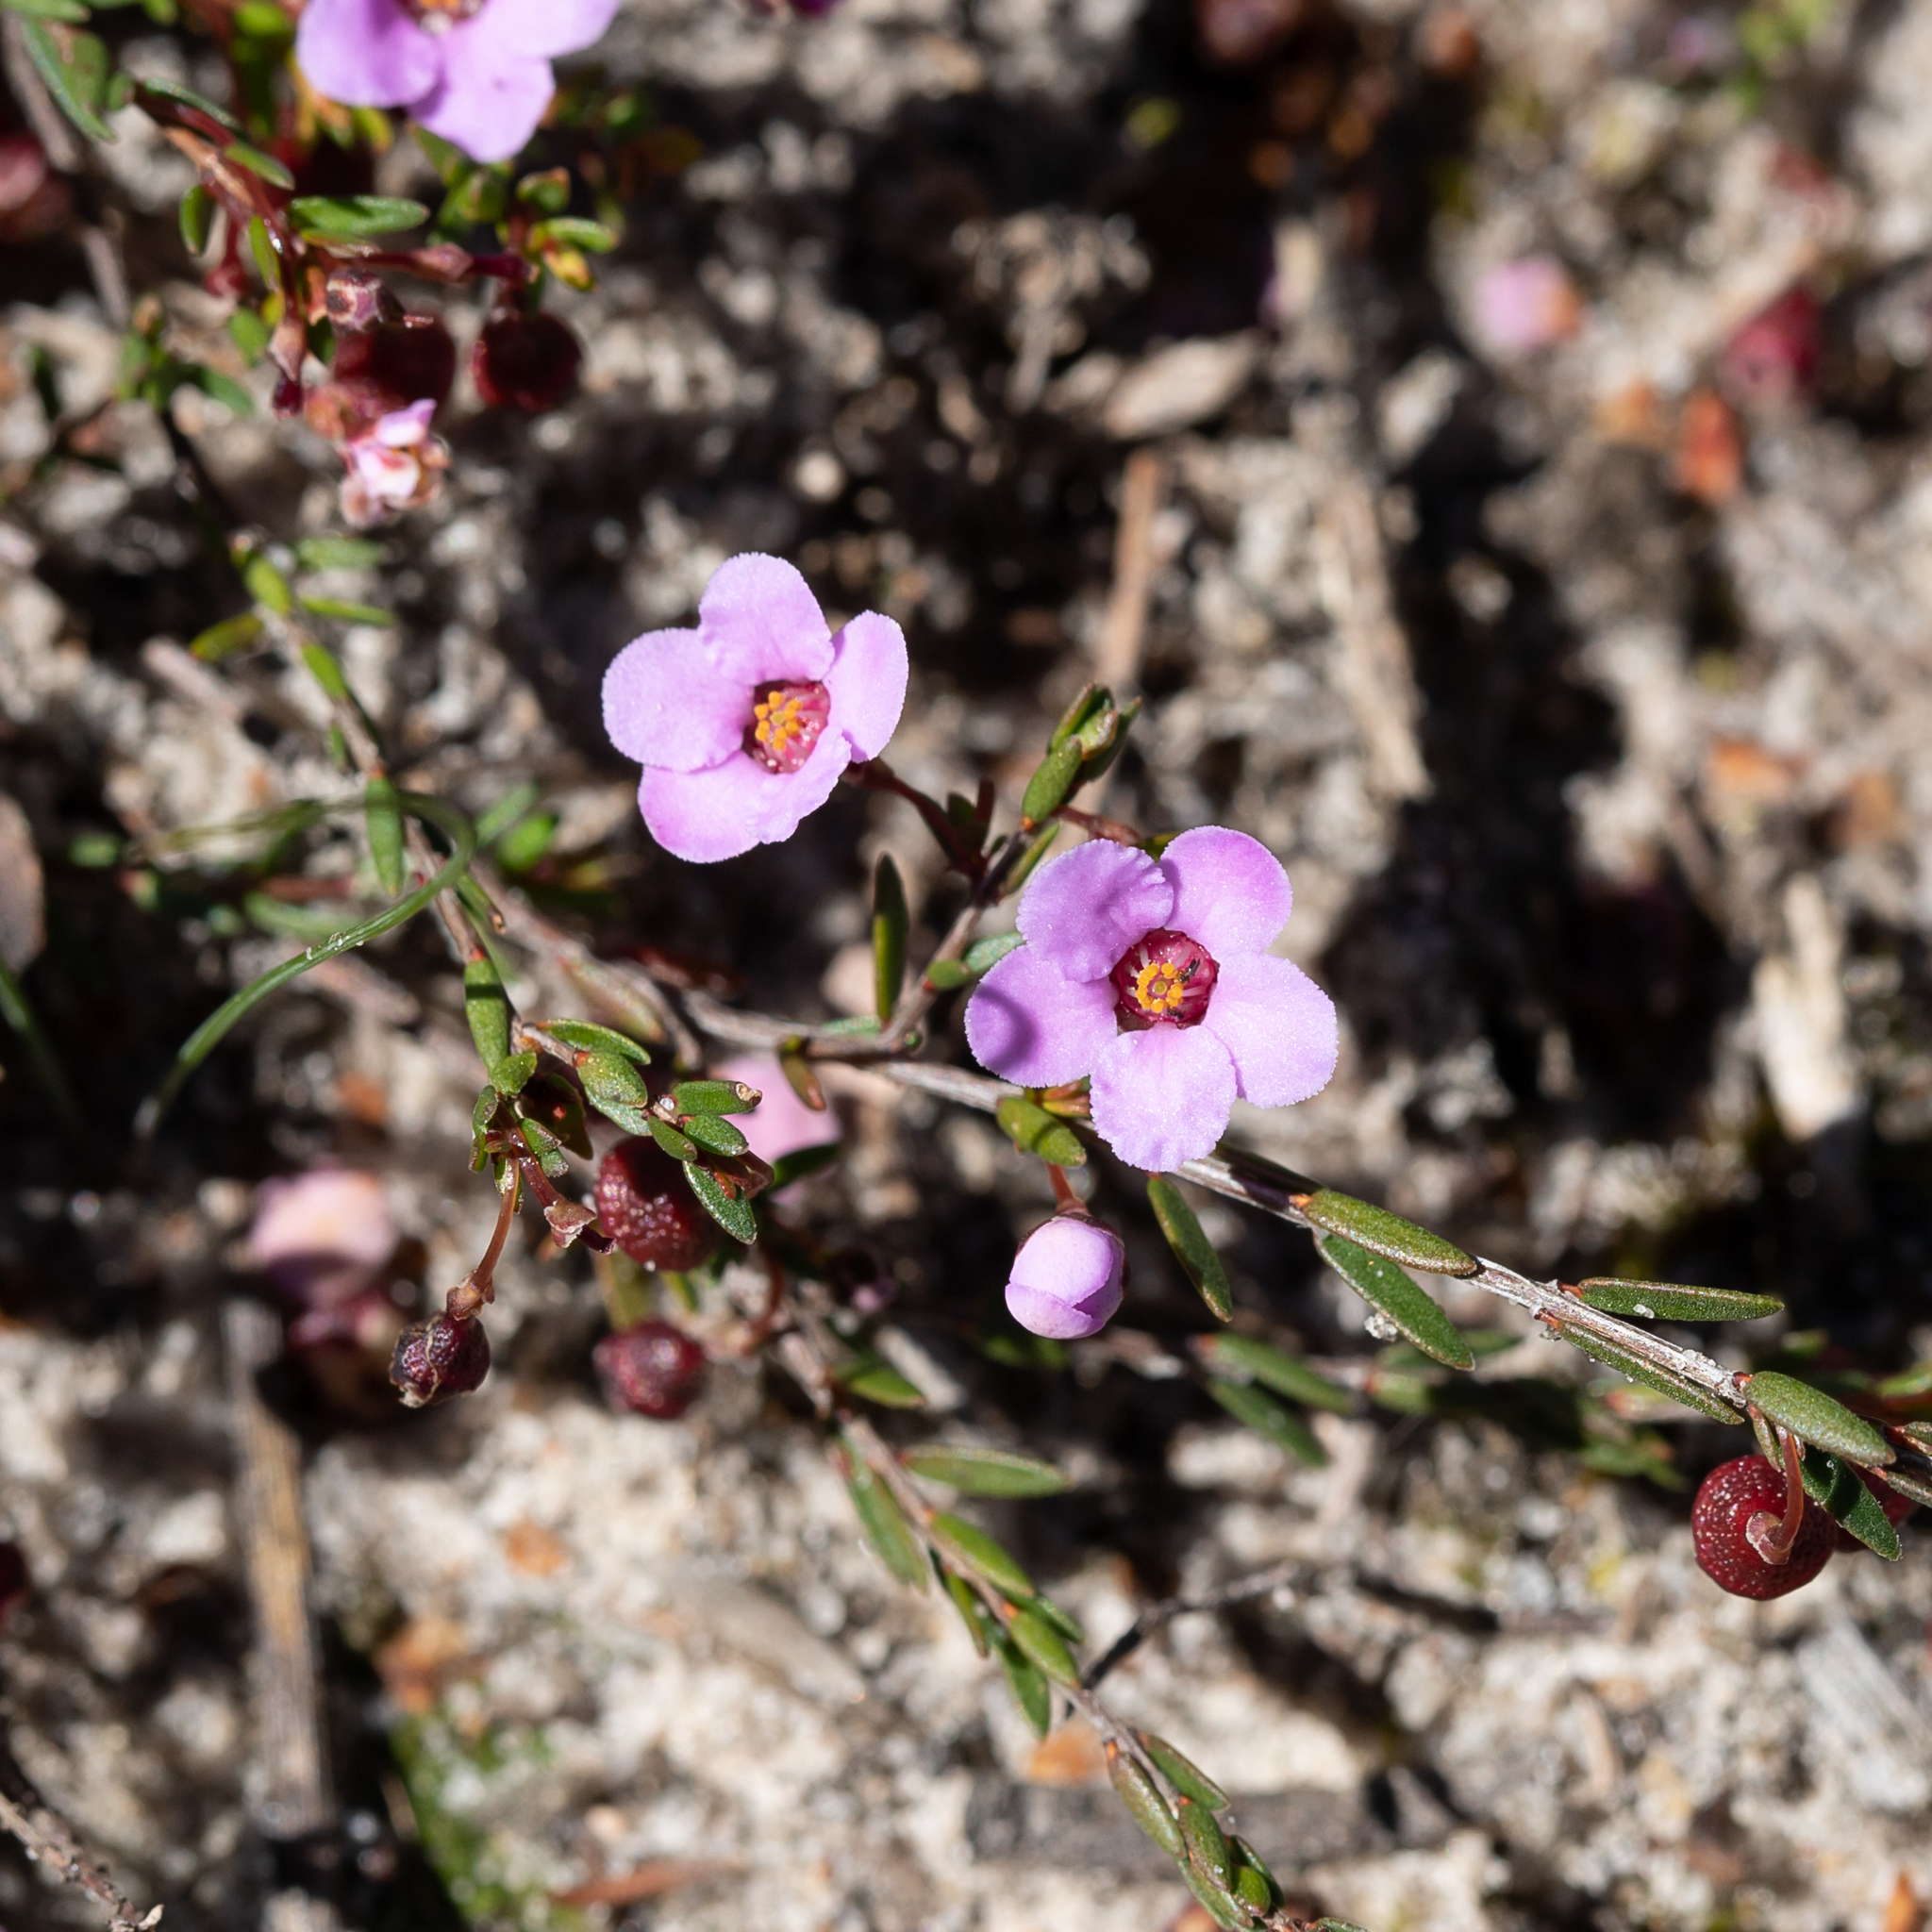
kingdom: Plantae
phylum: Tracheophyta
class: Magnoliopsida
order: Myrtales
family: Myrtaceae
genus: Euryomyrtus
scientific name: Euryomyrtus ramosissima
